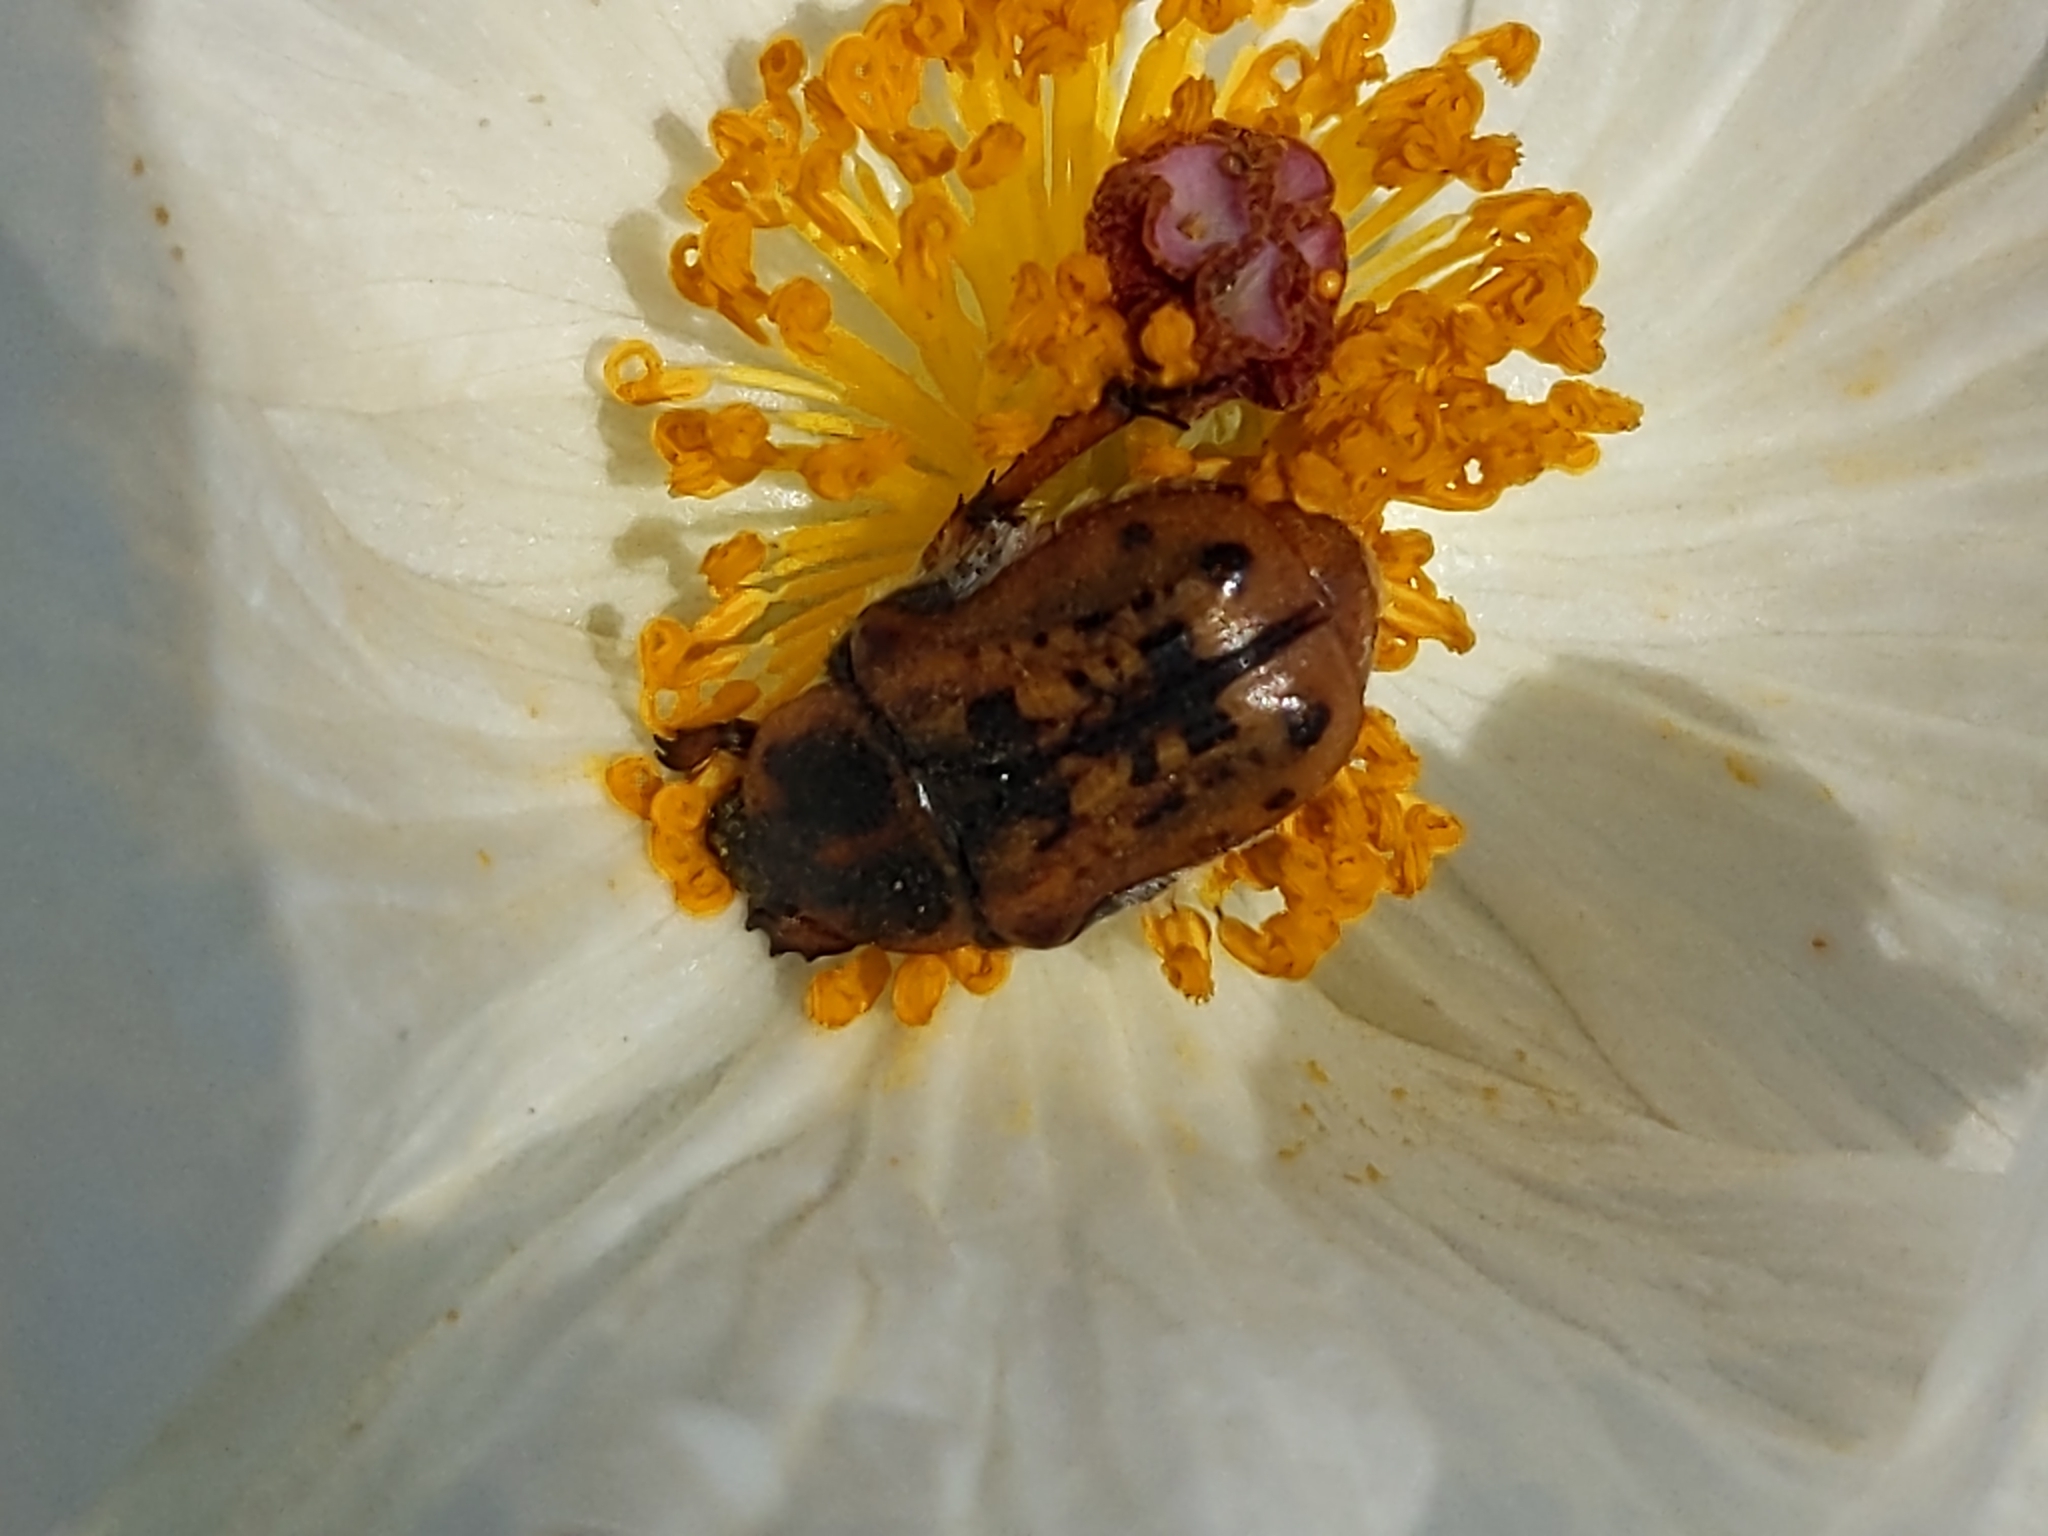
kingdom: Animalia
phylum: Arthropoda
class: Insecta
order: Coleoptera
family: Scarabaeidae
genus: Euphoria
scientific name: Euphoria kernii
